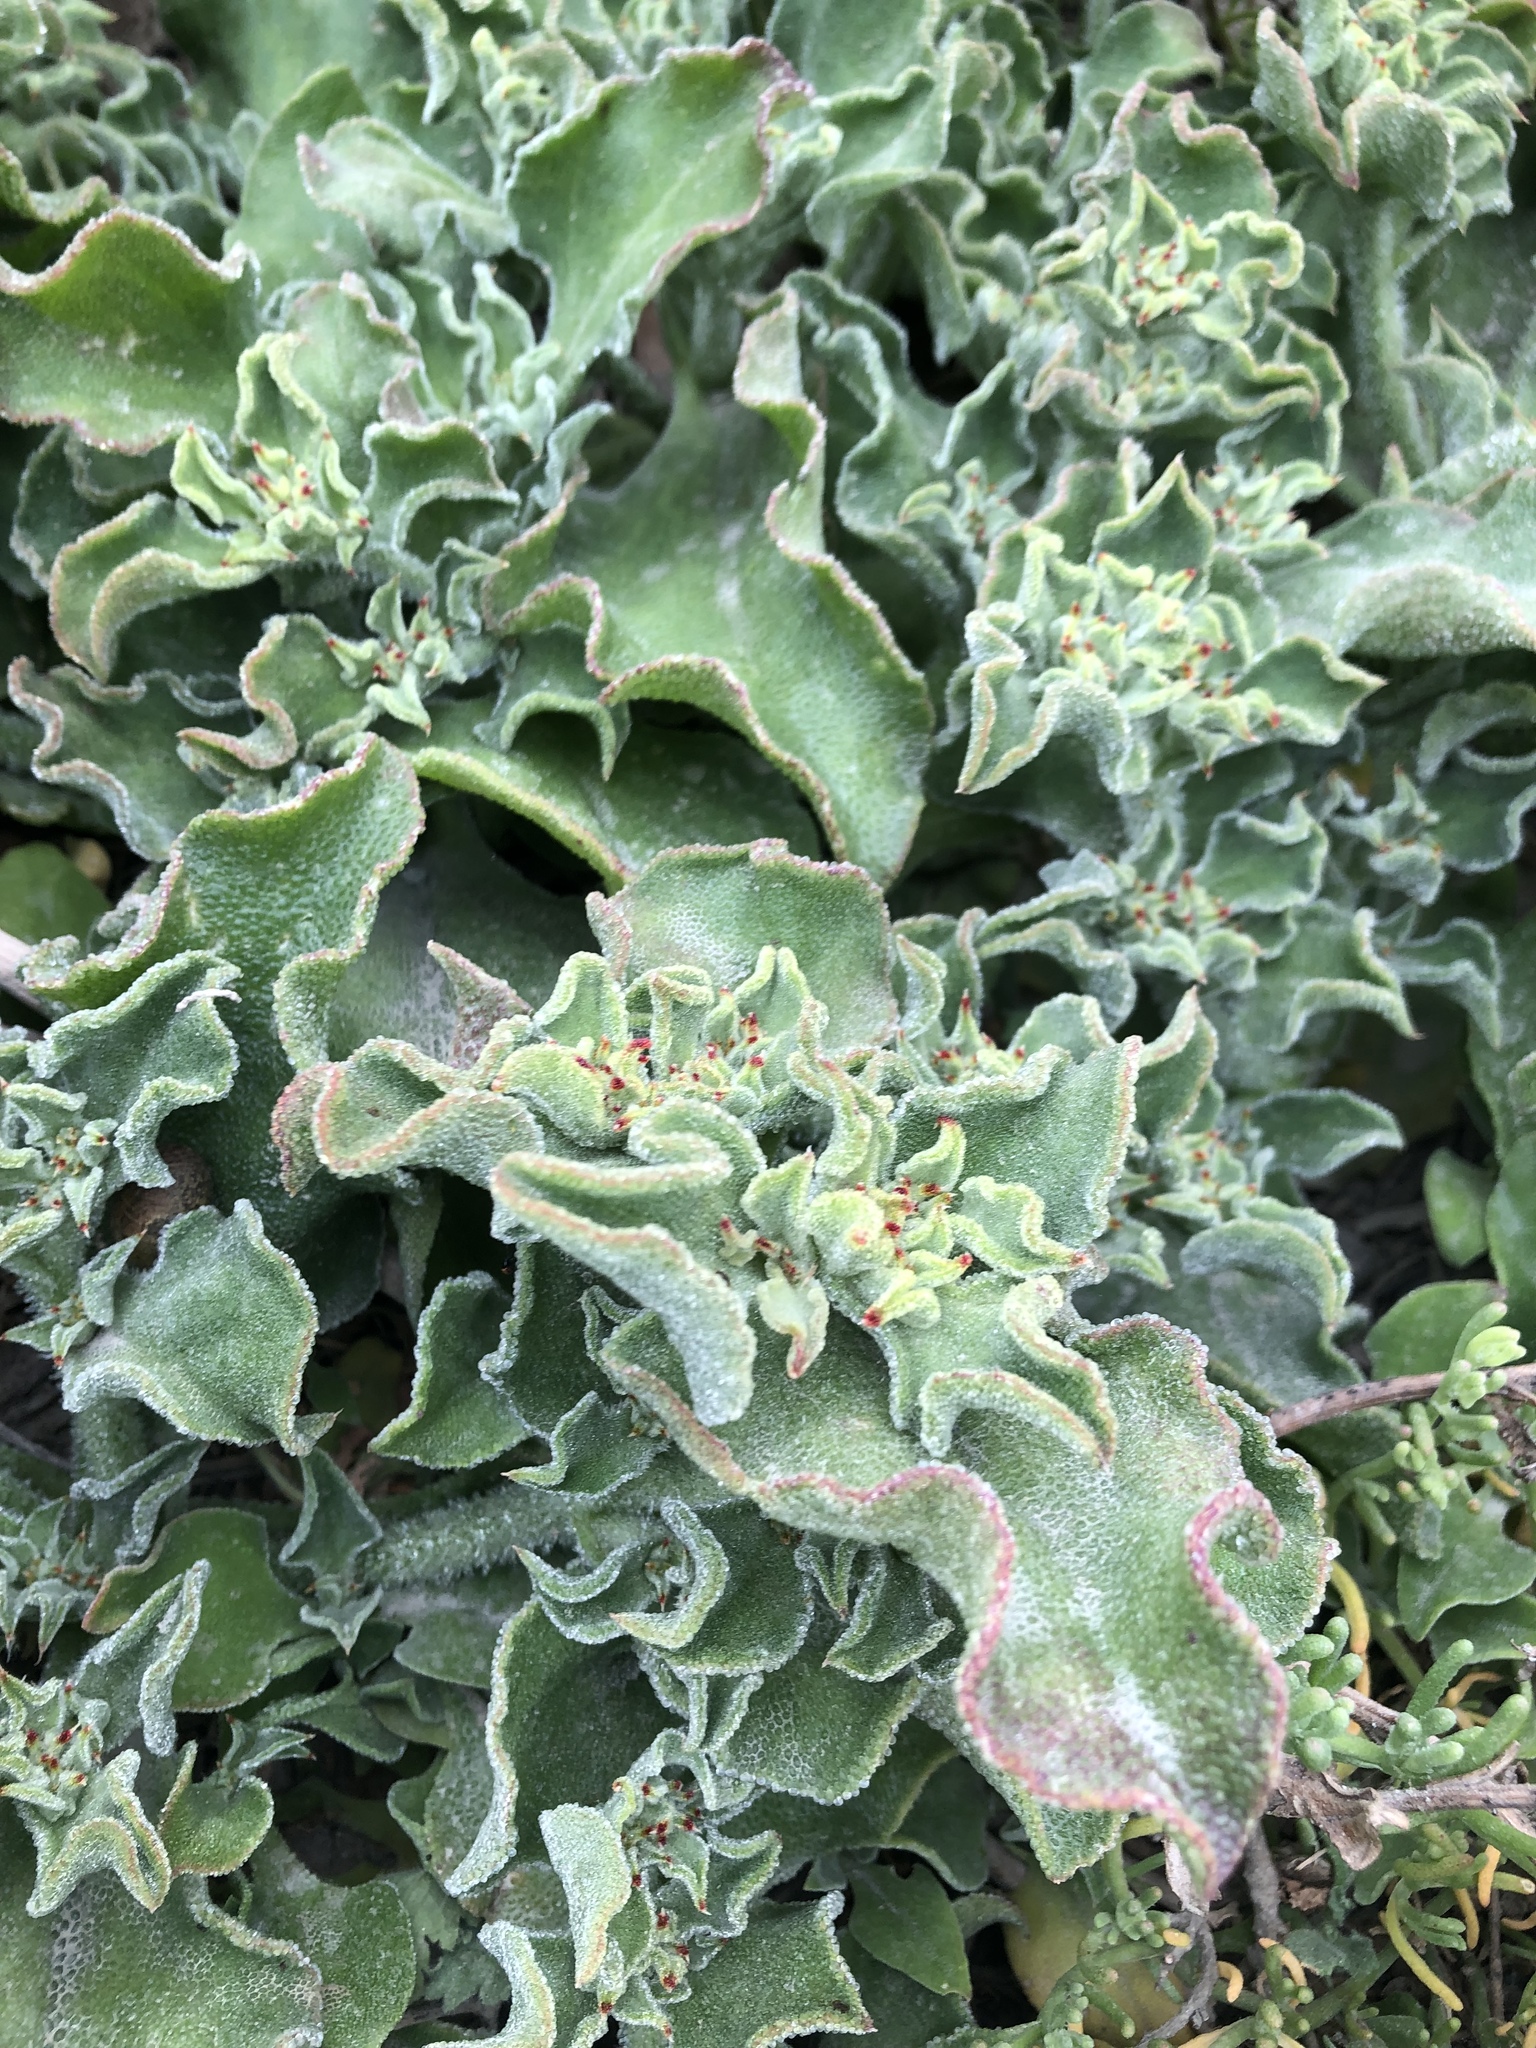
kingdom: Plantae
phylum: Tracheophyta
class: Magnoliopsida
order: Caryophyllales
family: Aizoaceae
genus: Mesembryanthemum
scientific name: Mesembryanthemum crystallinum
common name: Common iceplant
